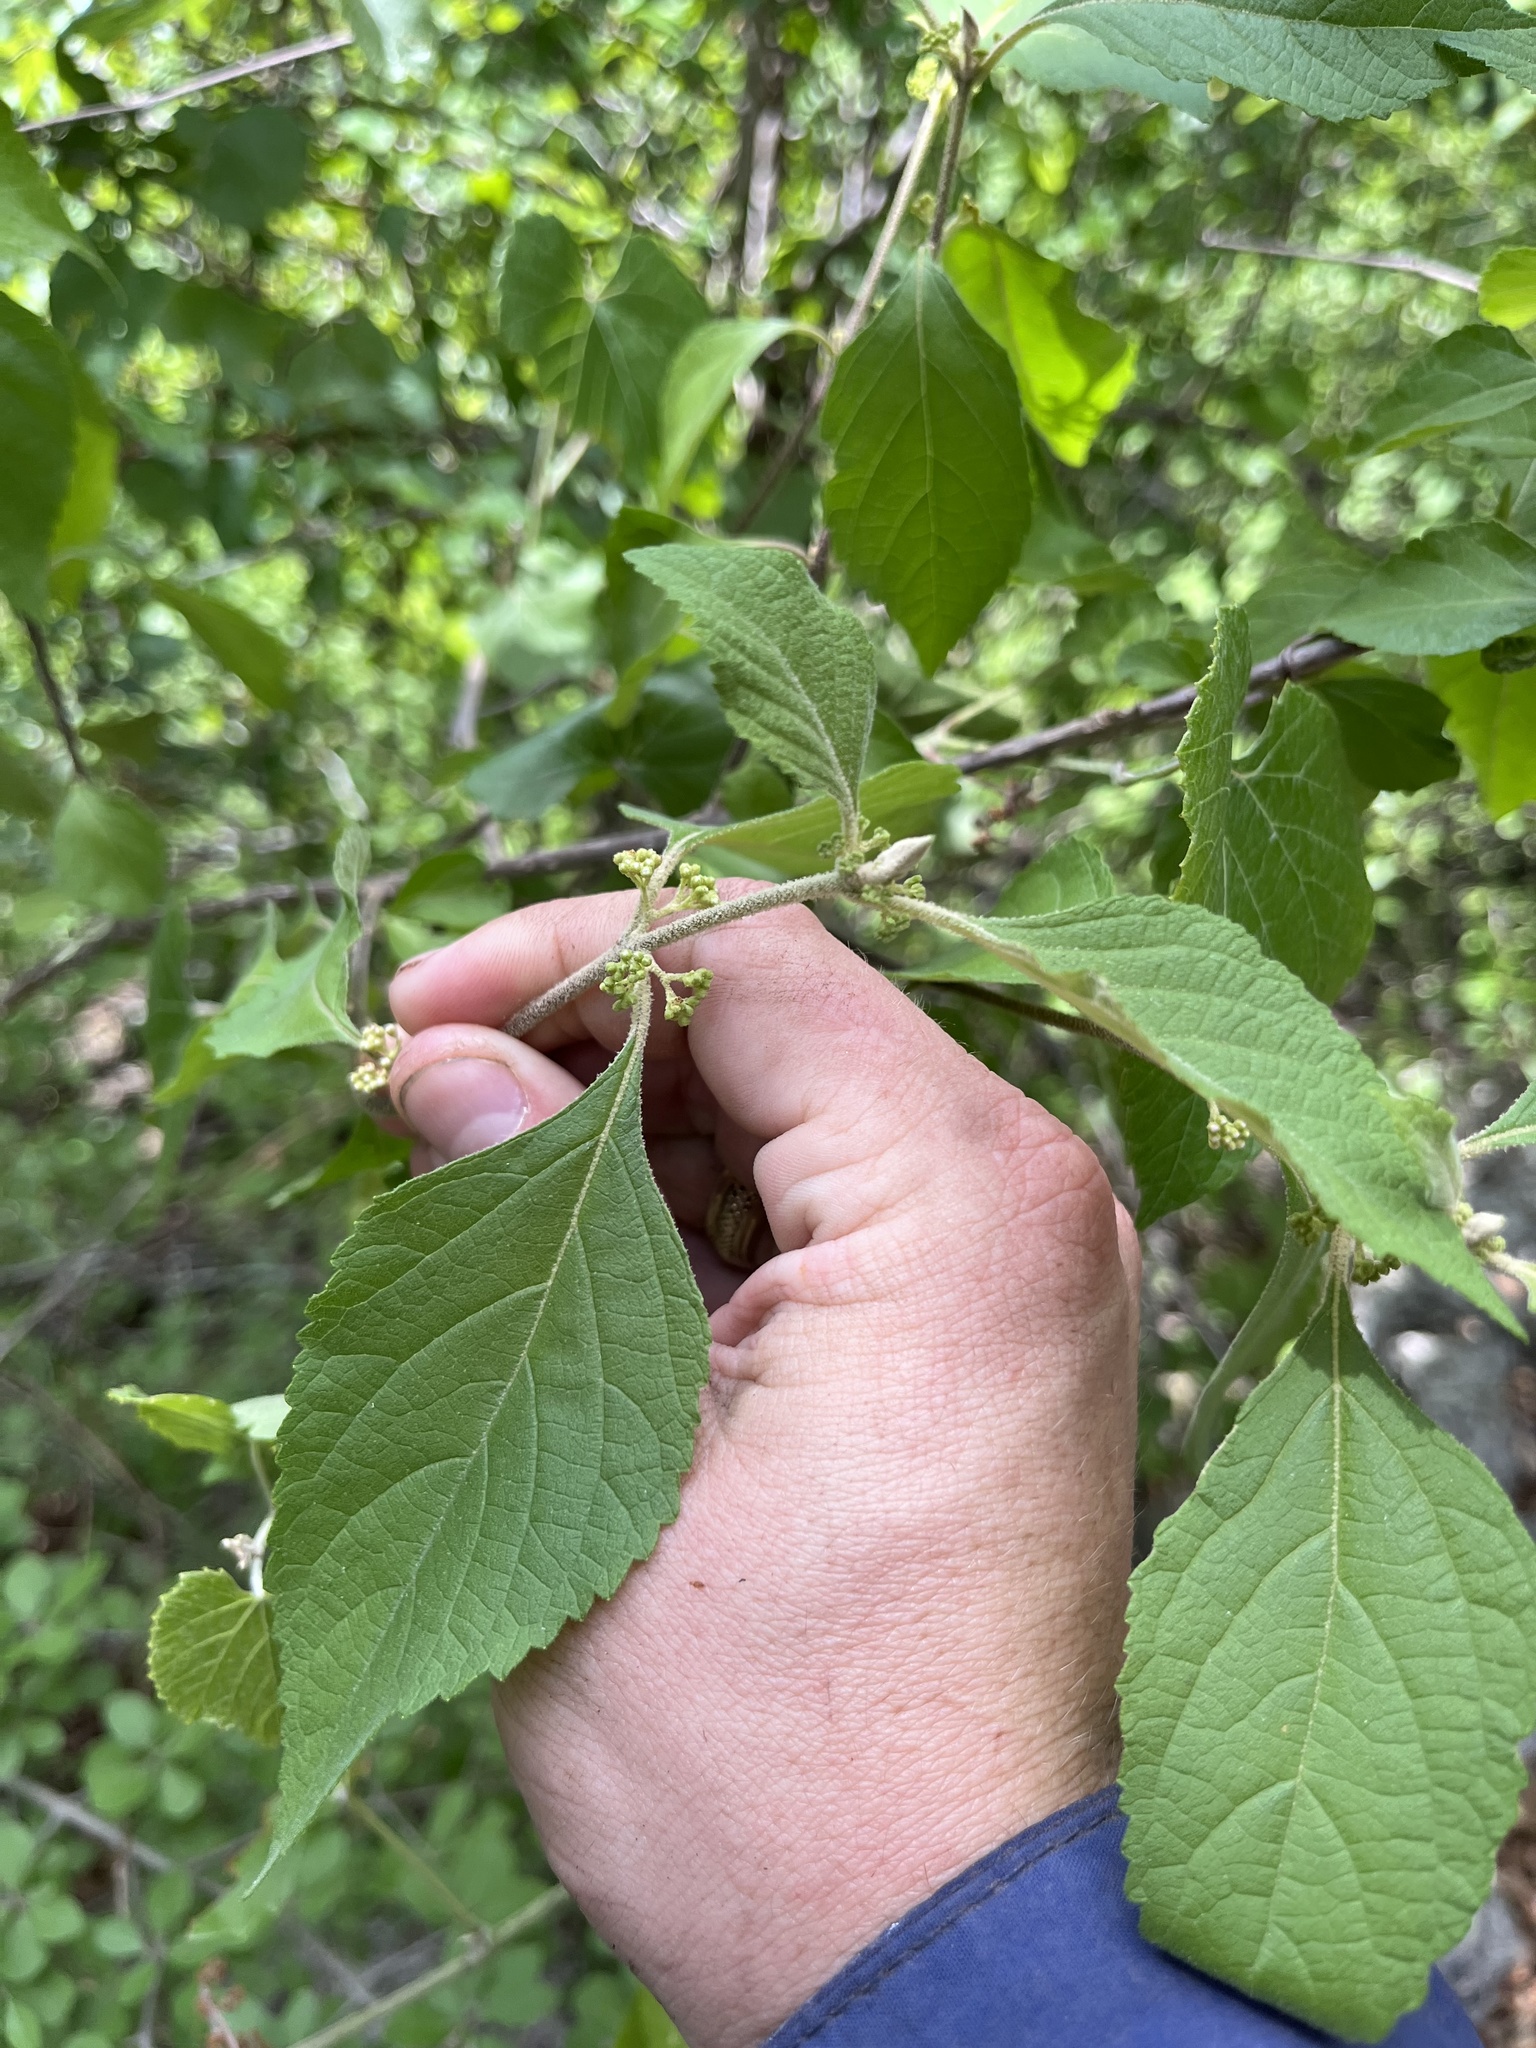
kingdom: Plantae
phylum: Tracheophyta
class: Magnoliopsida
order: Lamiales
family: Lamiaceae
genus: Callicarpa
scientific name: Callicarpa americana
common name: American beautyberry
